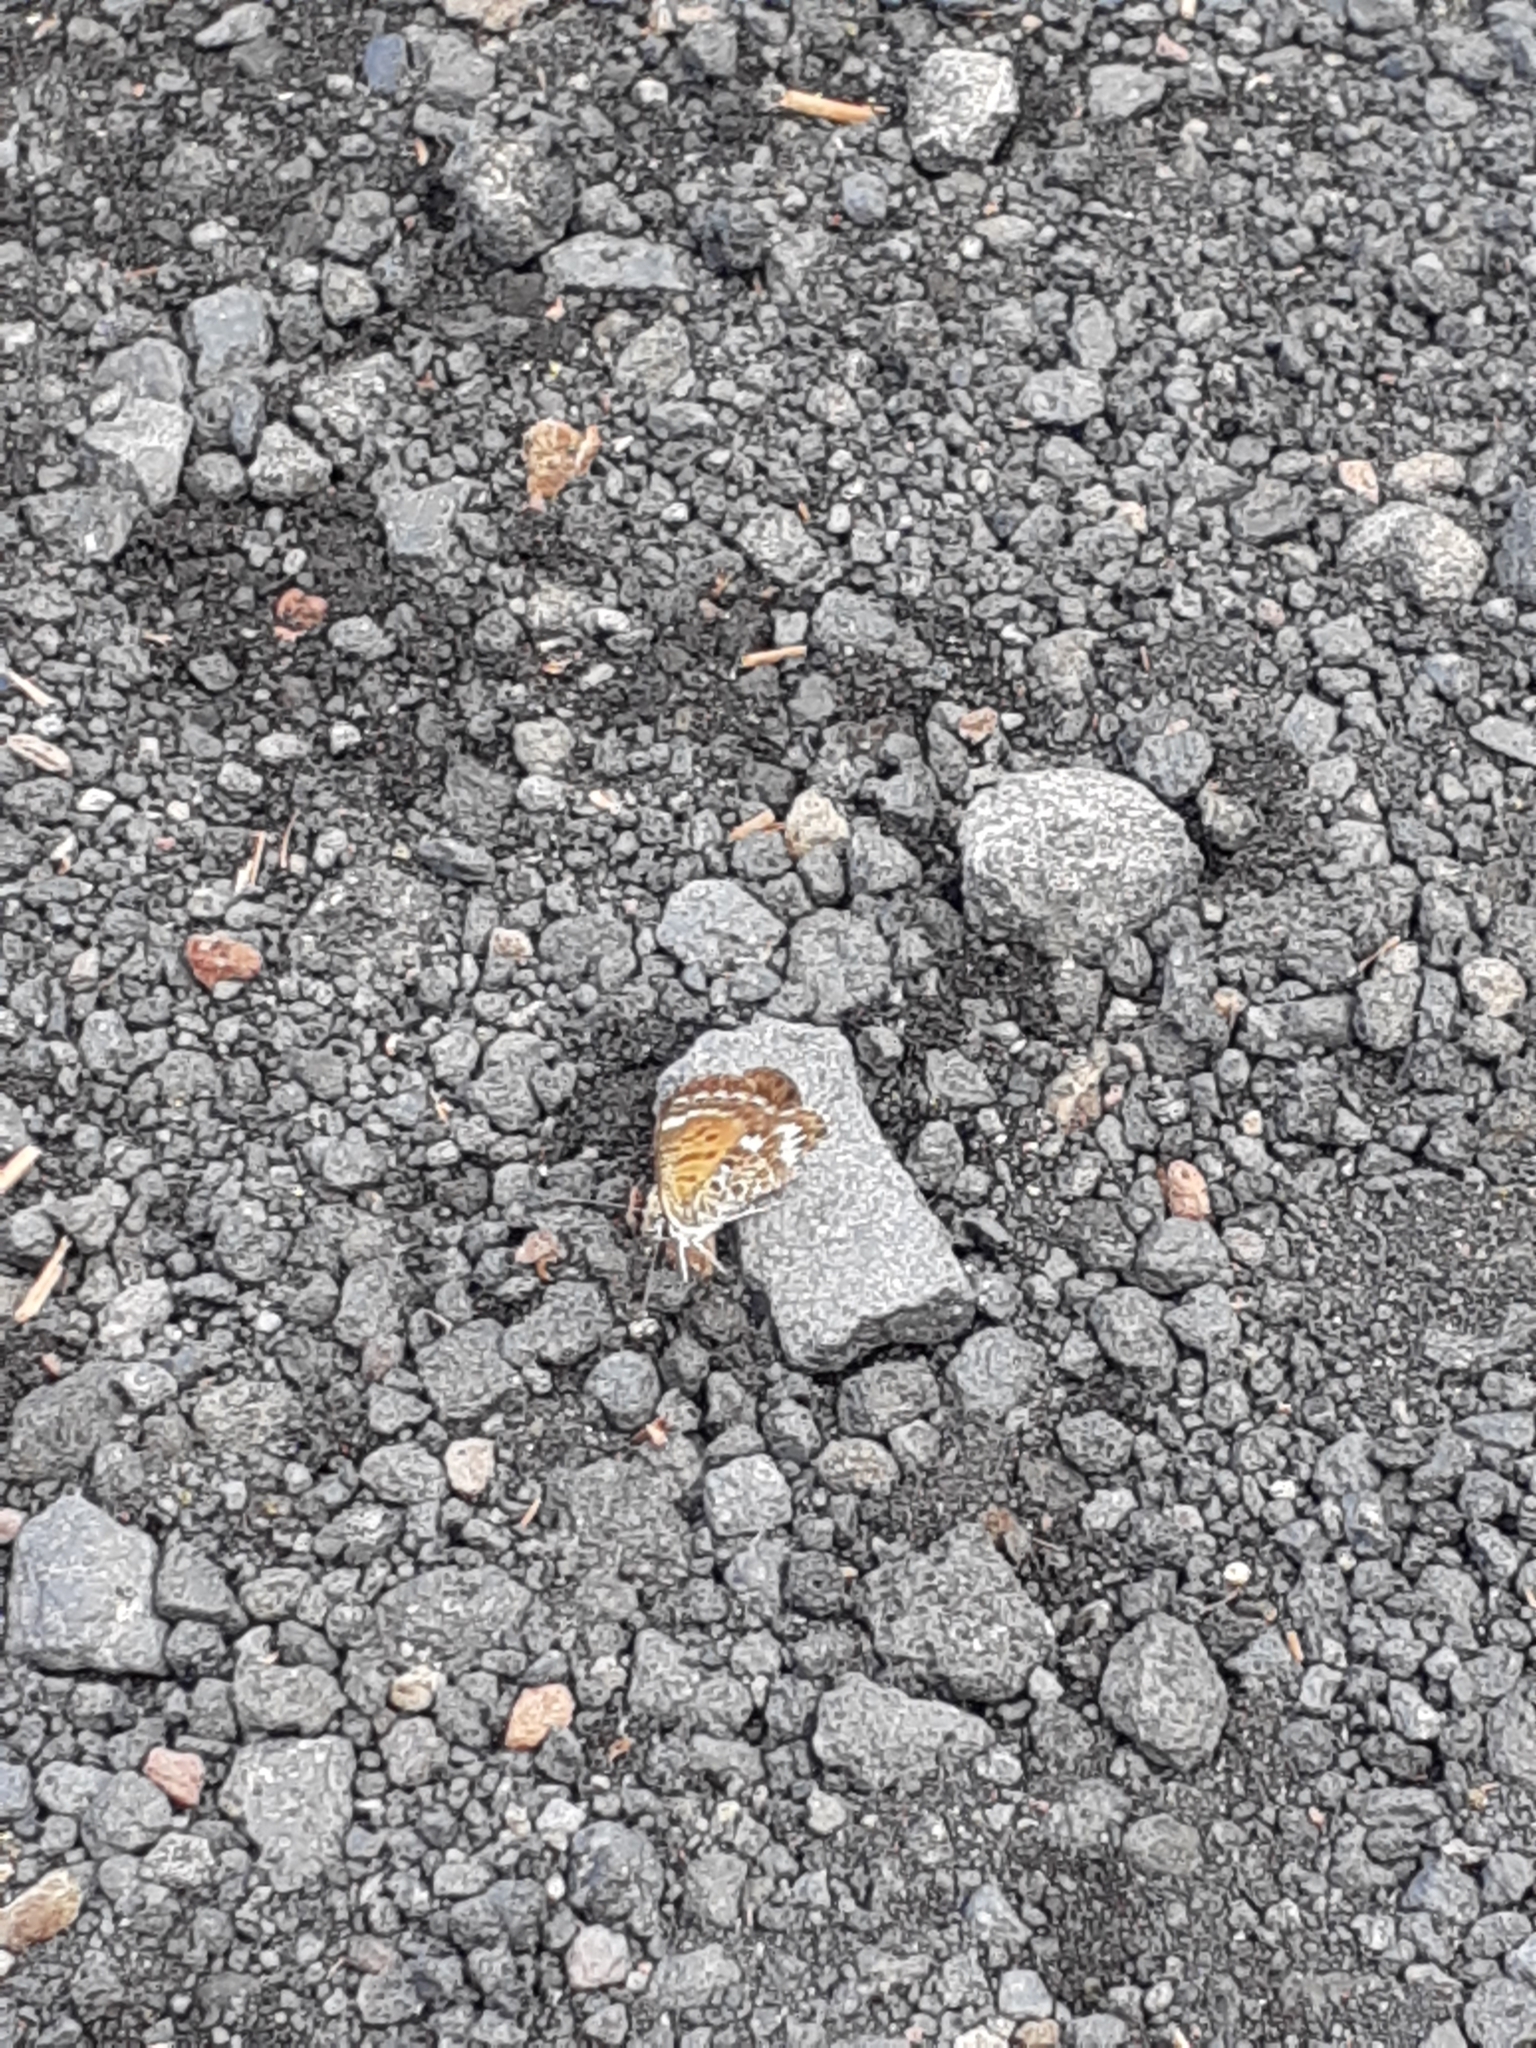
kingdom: Animalia
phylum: Arthropoda
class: Insecta
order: Lepidoptera
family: Lycaenidae
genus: Cyclyrius
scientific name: Cyclyrius webbianus
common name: Canary blue
